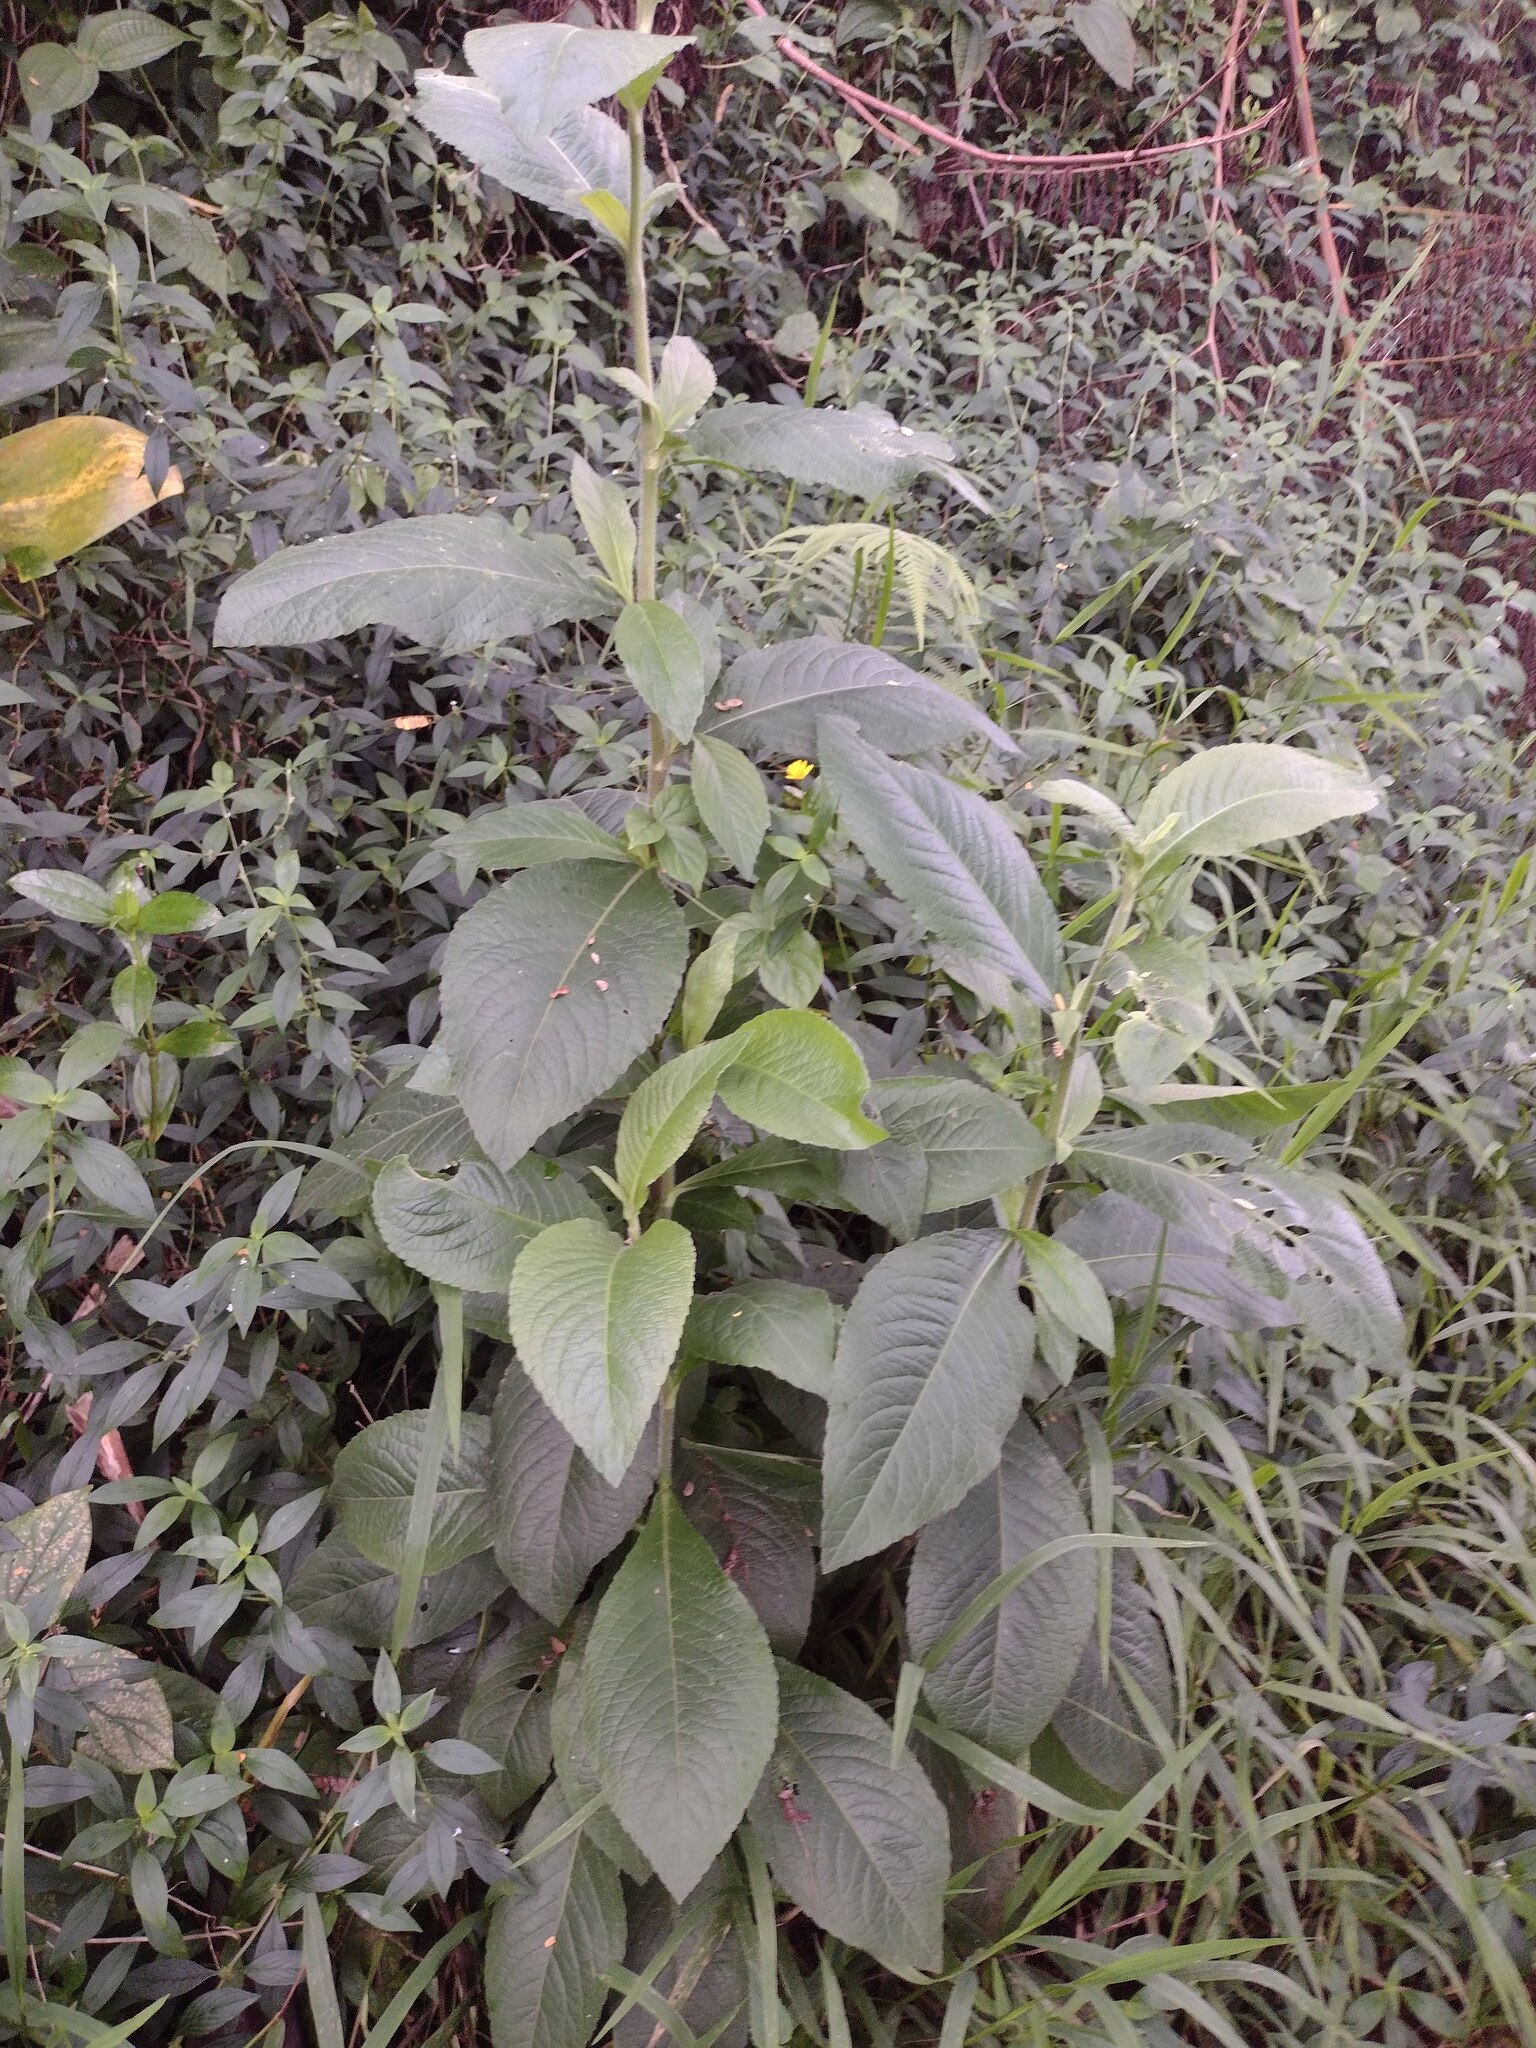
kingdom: Plantae
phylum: Tracheophyta
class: Magnoliopsida
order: Asterales
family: Asteraceae
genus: Elephantopus
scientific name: Elephantopus mollis
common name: Soft elephantsfoot
